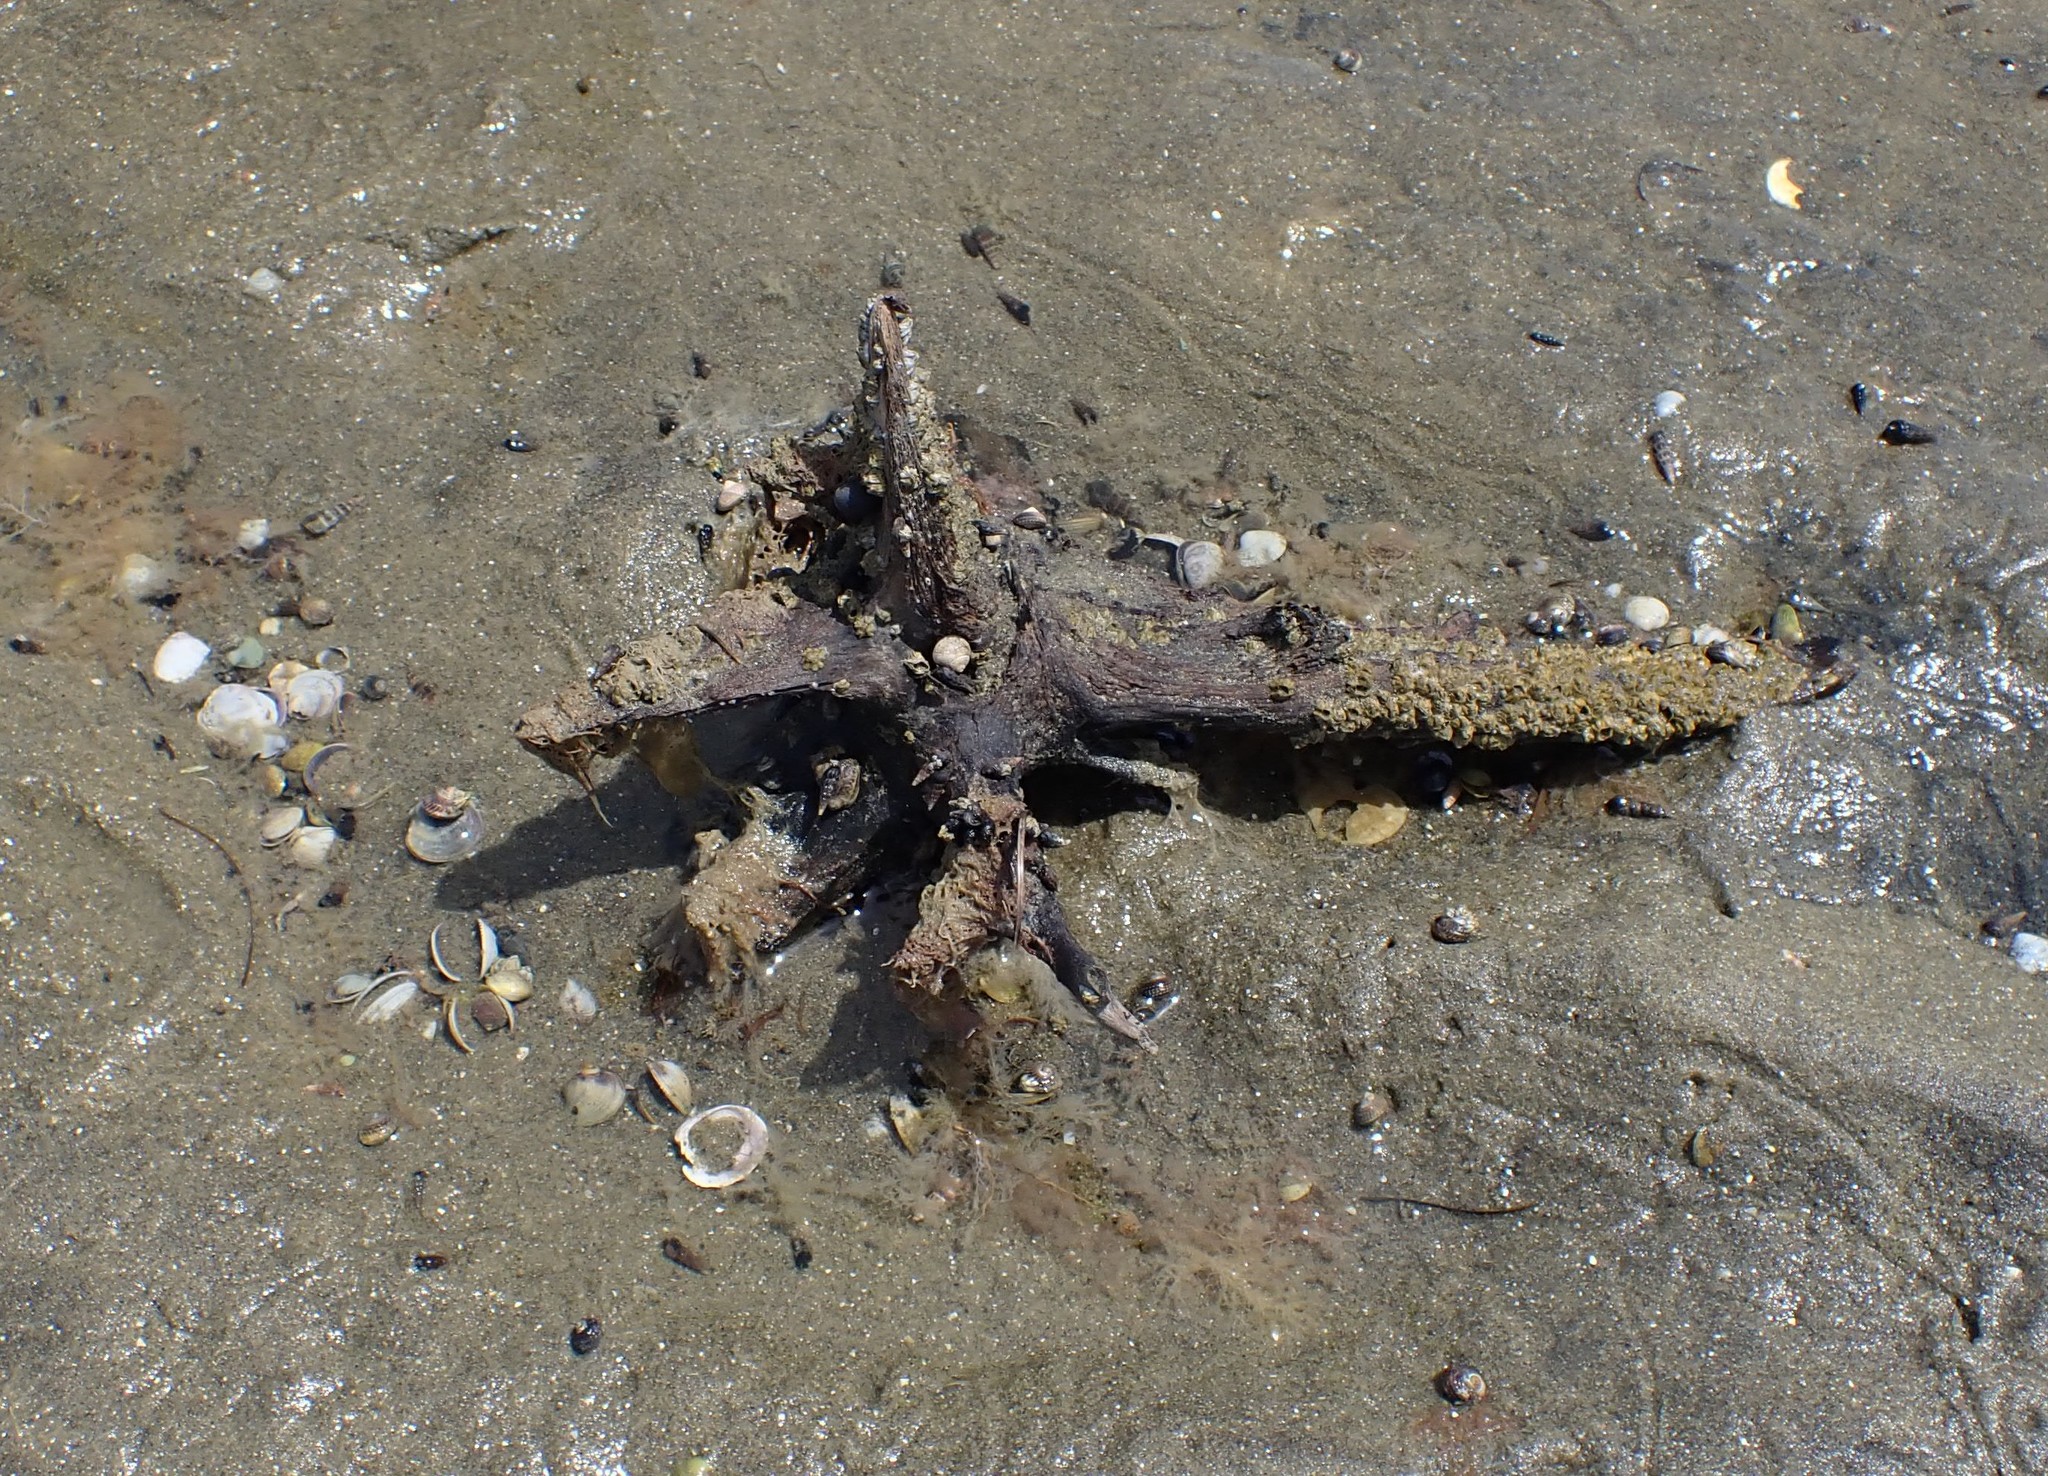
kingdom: Animalia
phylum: Mollusca
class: Gastropoda
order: Cycloneritida
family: Neritidae
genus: Nerita
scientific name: Nerita melanotragus
